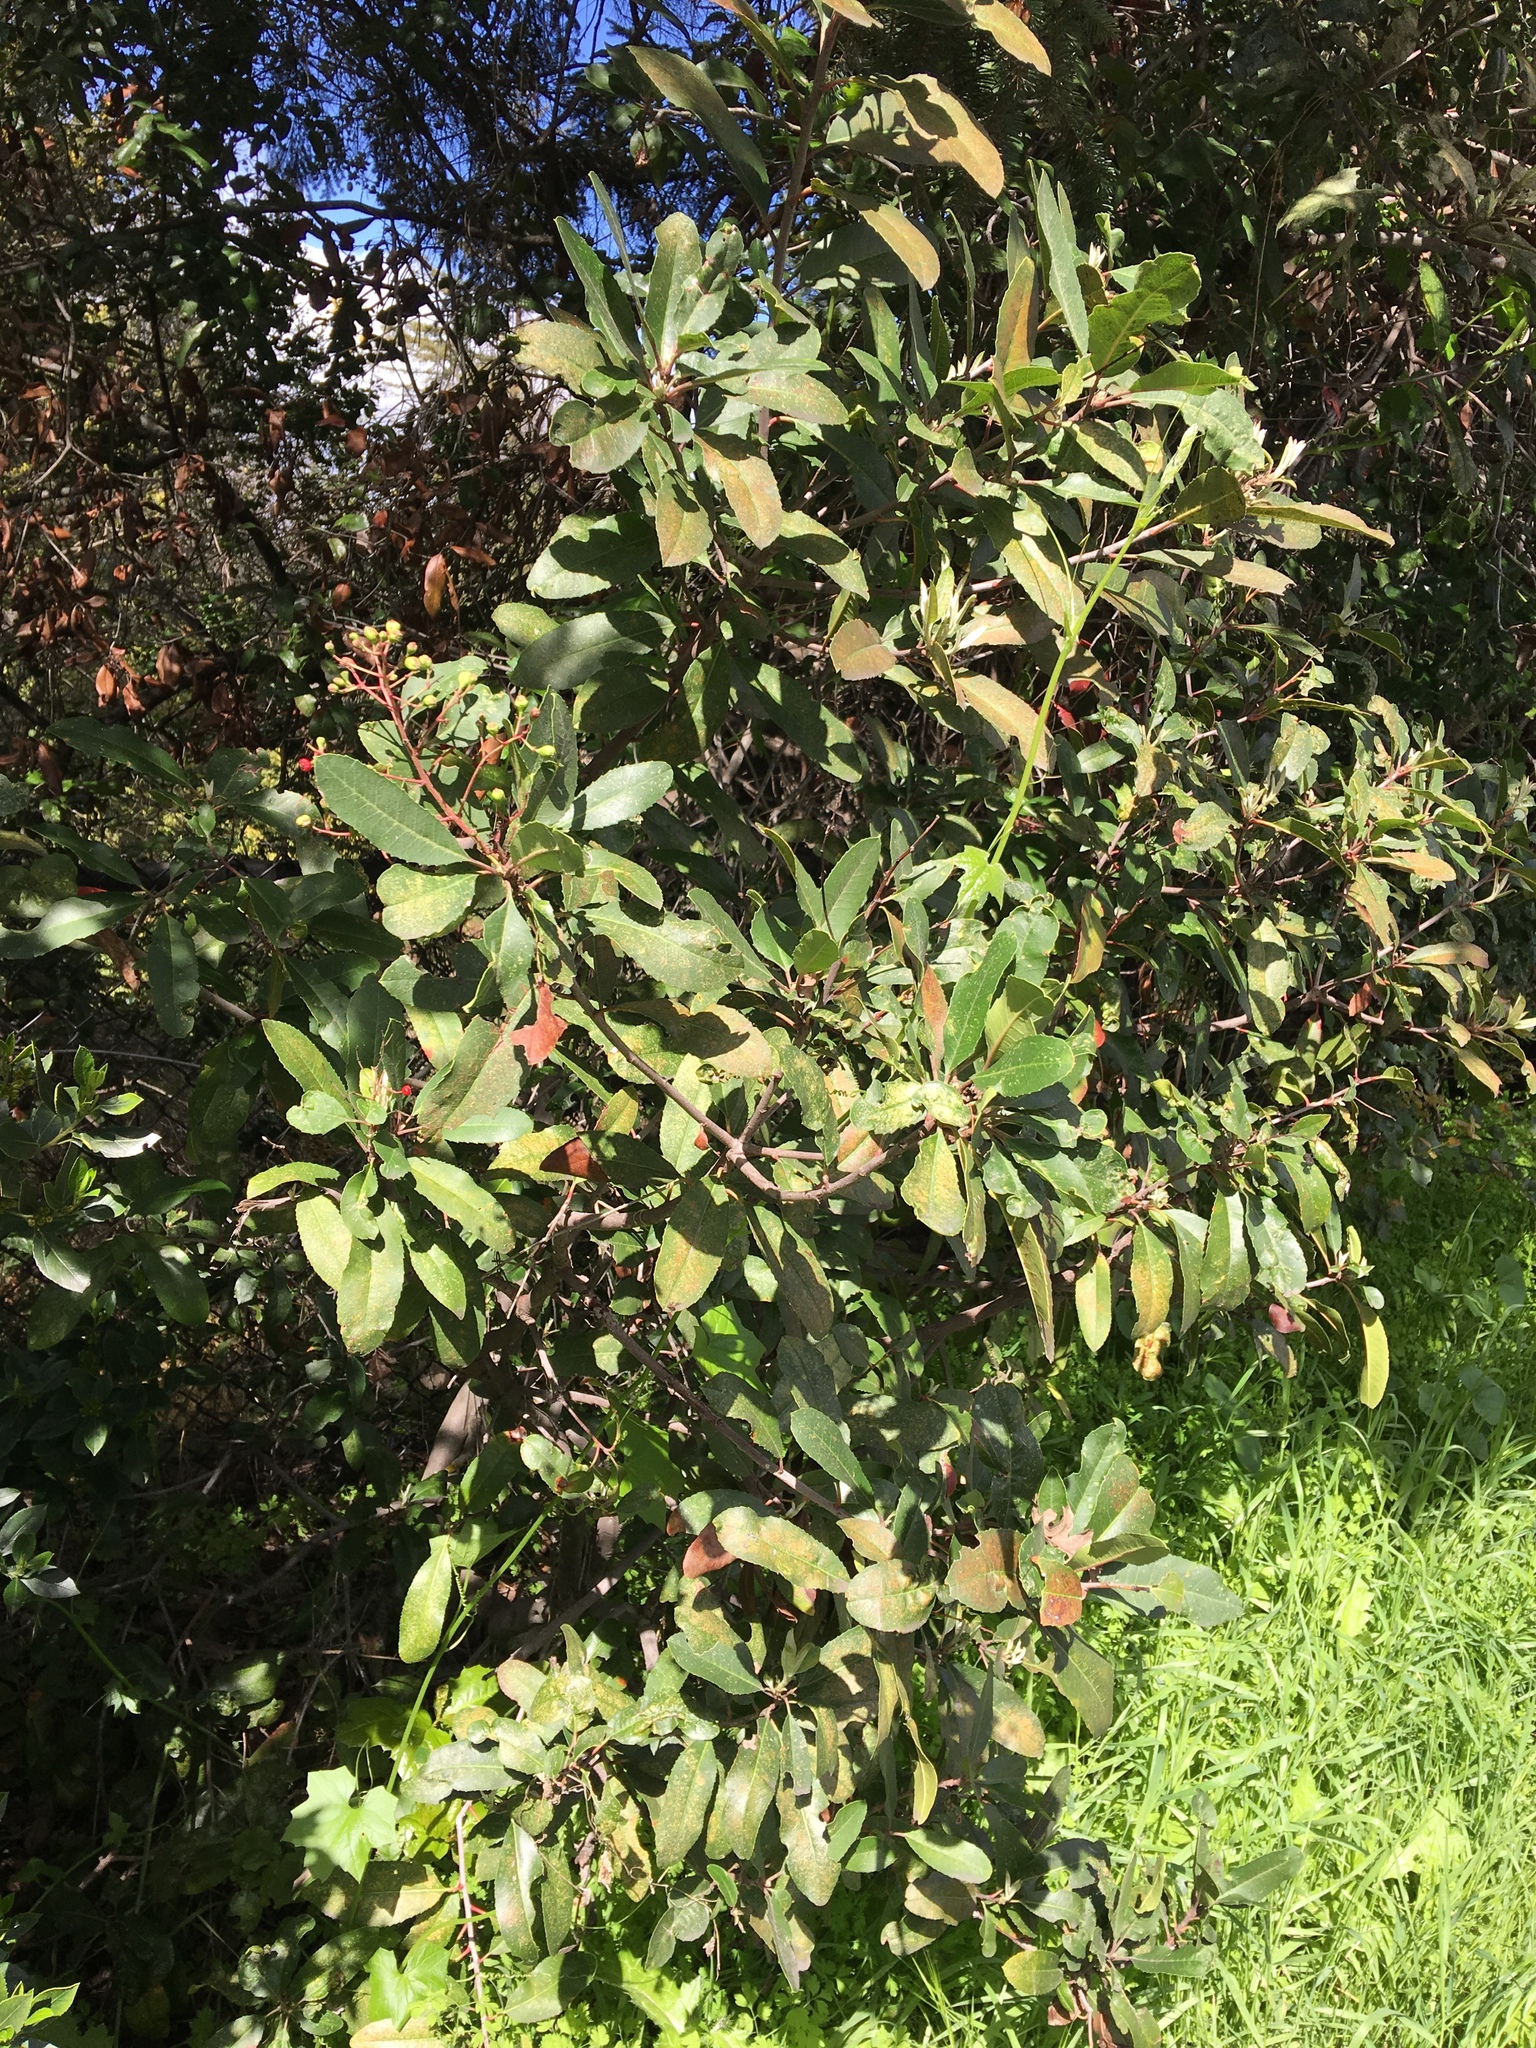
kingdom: Plantae
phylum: Tracheophyta
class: Magnoliopsida
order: Rosales
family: Rosaceae
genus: Heteromeles
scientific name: Heteromeles arbutifolia
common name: California-holly
